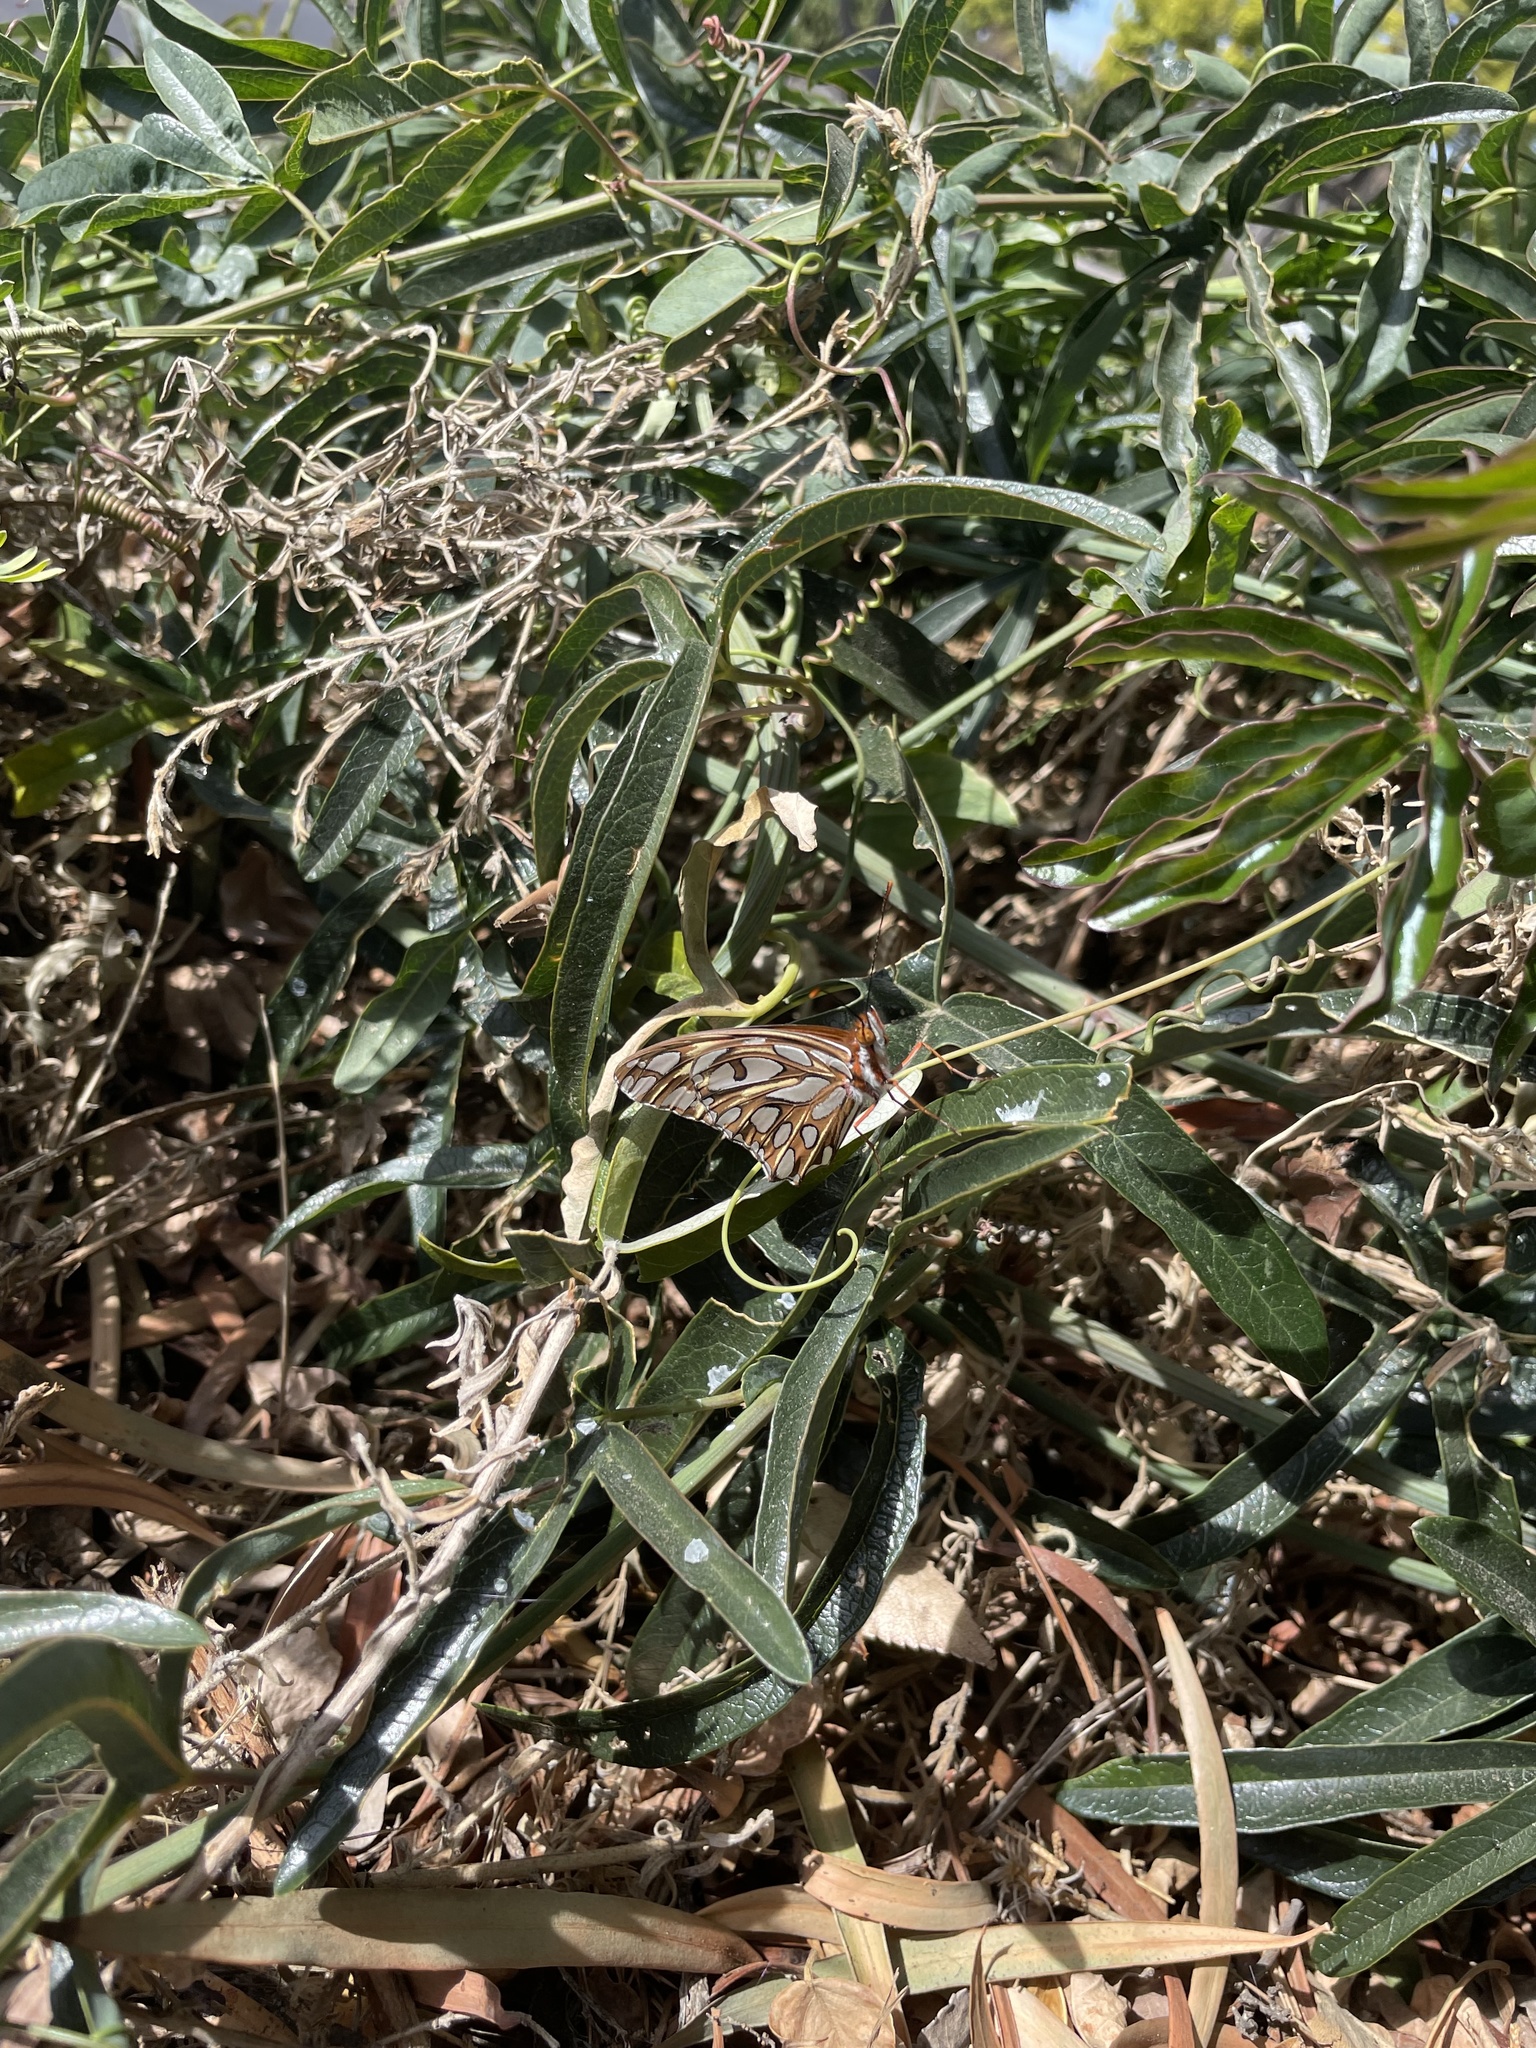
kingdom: Animalia
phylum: Arthropoda
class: Insecta
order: Lepidoptera
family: Nymphalidae
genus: Dione
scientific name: Dione vanillae
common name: Gulf fritillary
